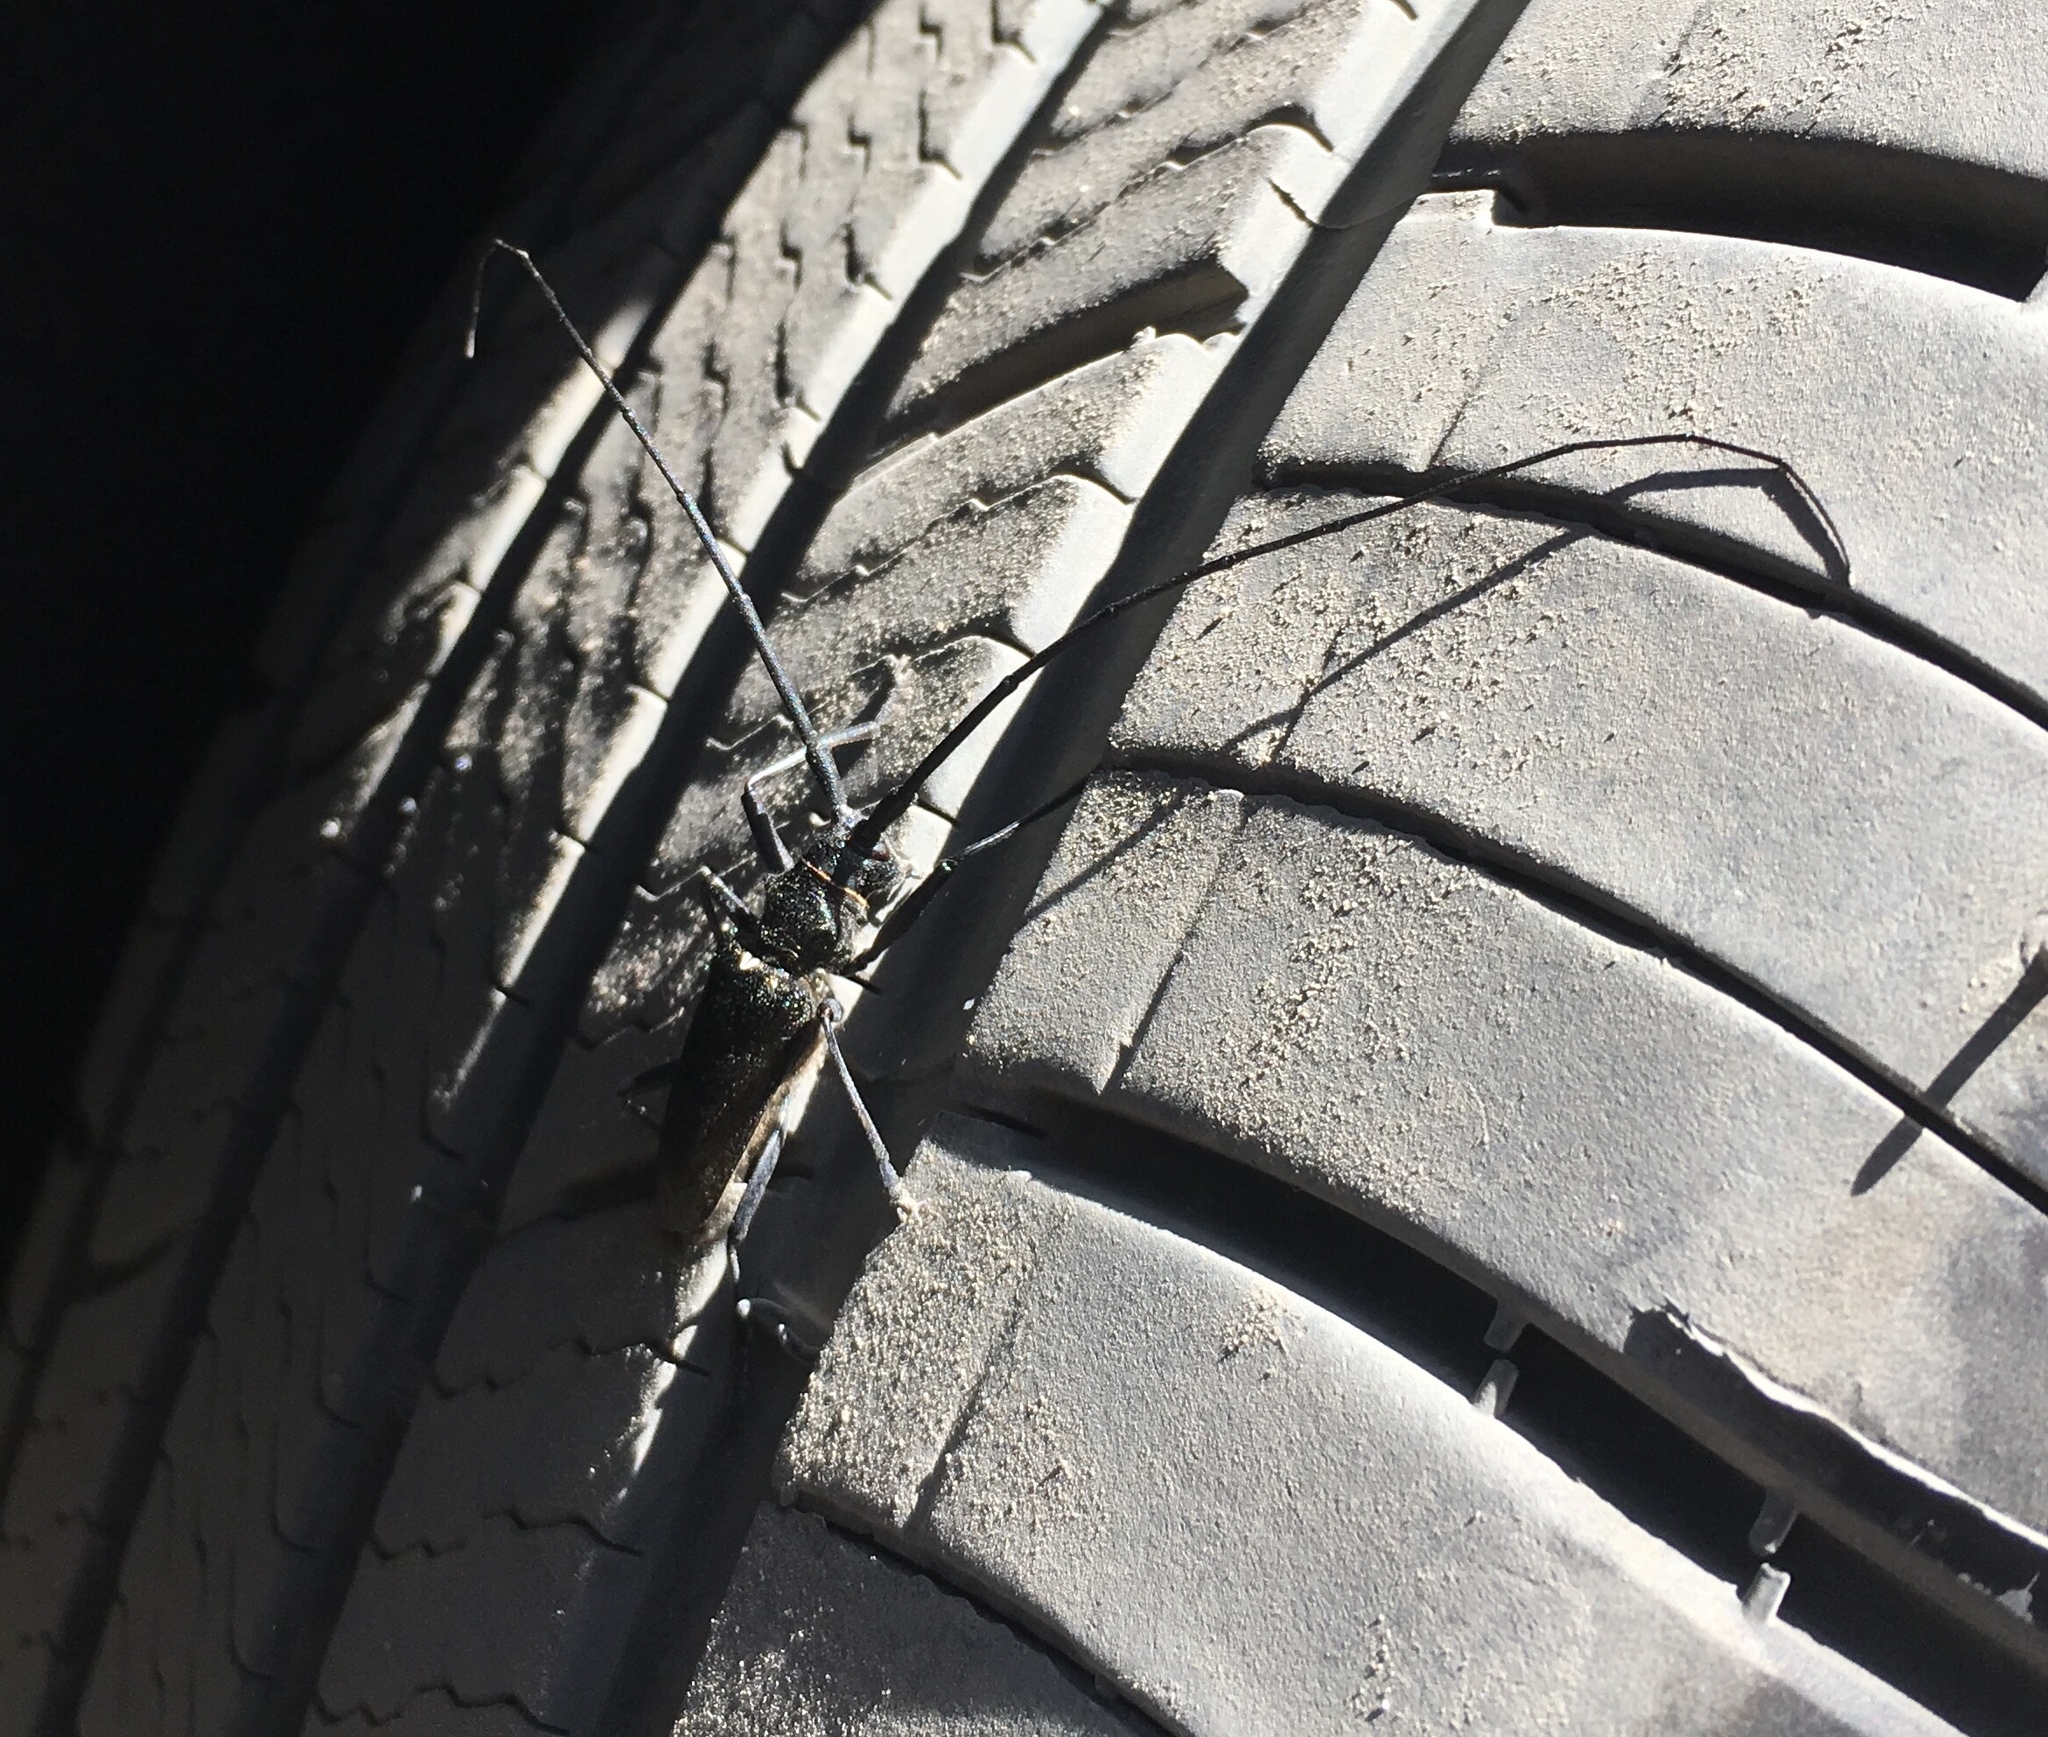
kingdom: Animalia
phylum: Arthropoda
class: Insecta
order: Coleoptera
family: Cerambycidae
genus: Monochamus
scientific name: Monochamus scutellatus
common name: White-spotted sawyer beetle
